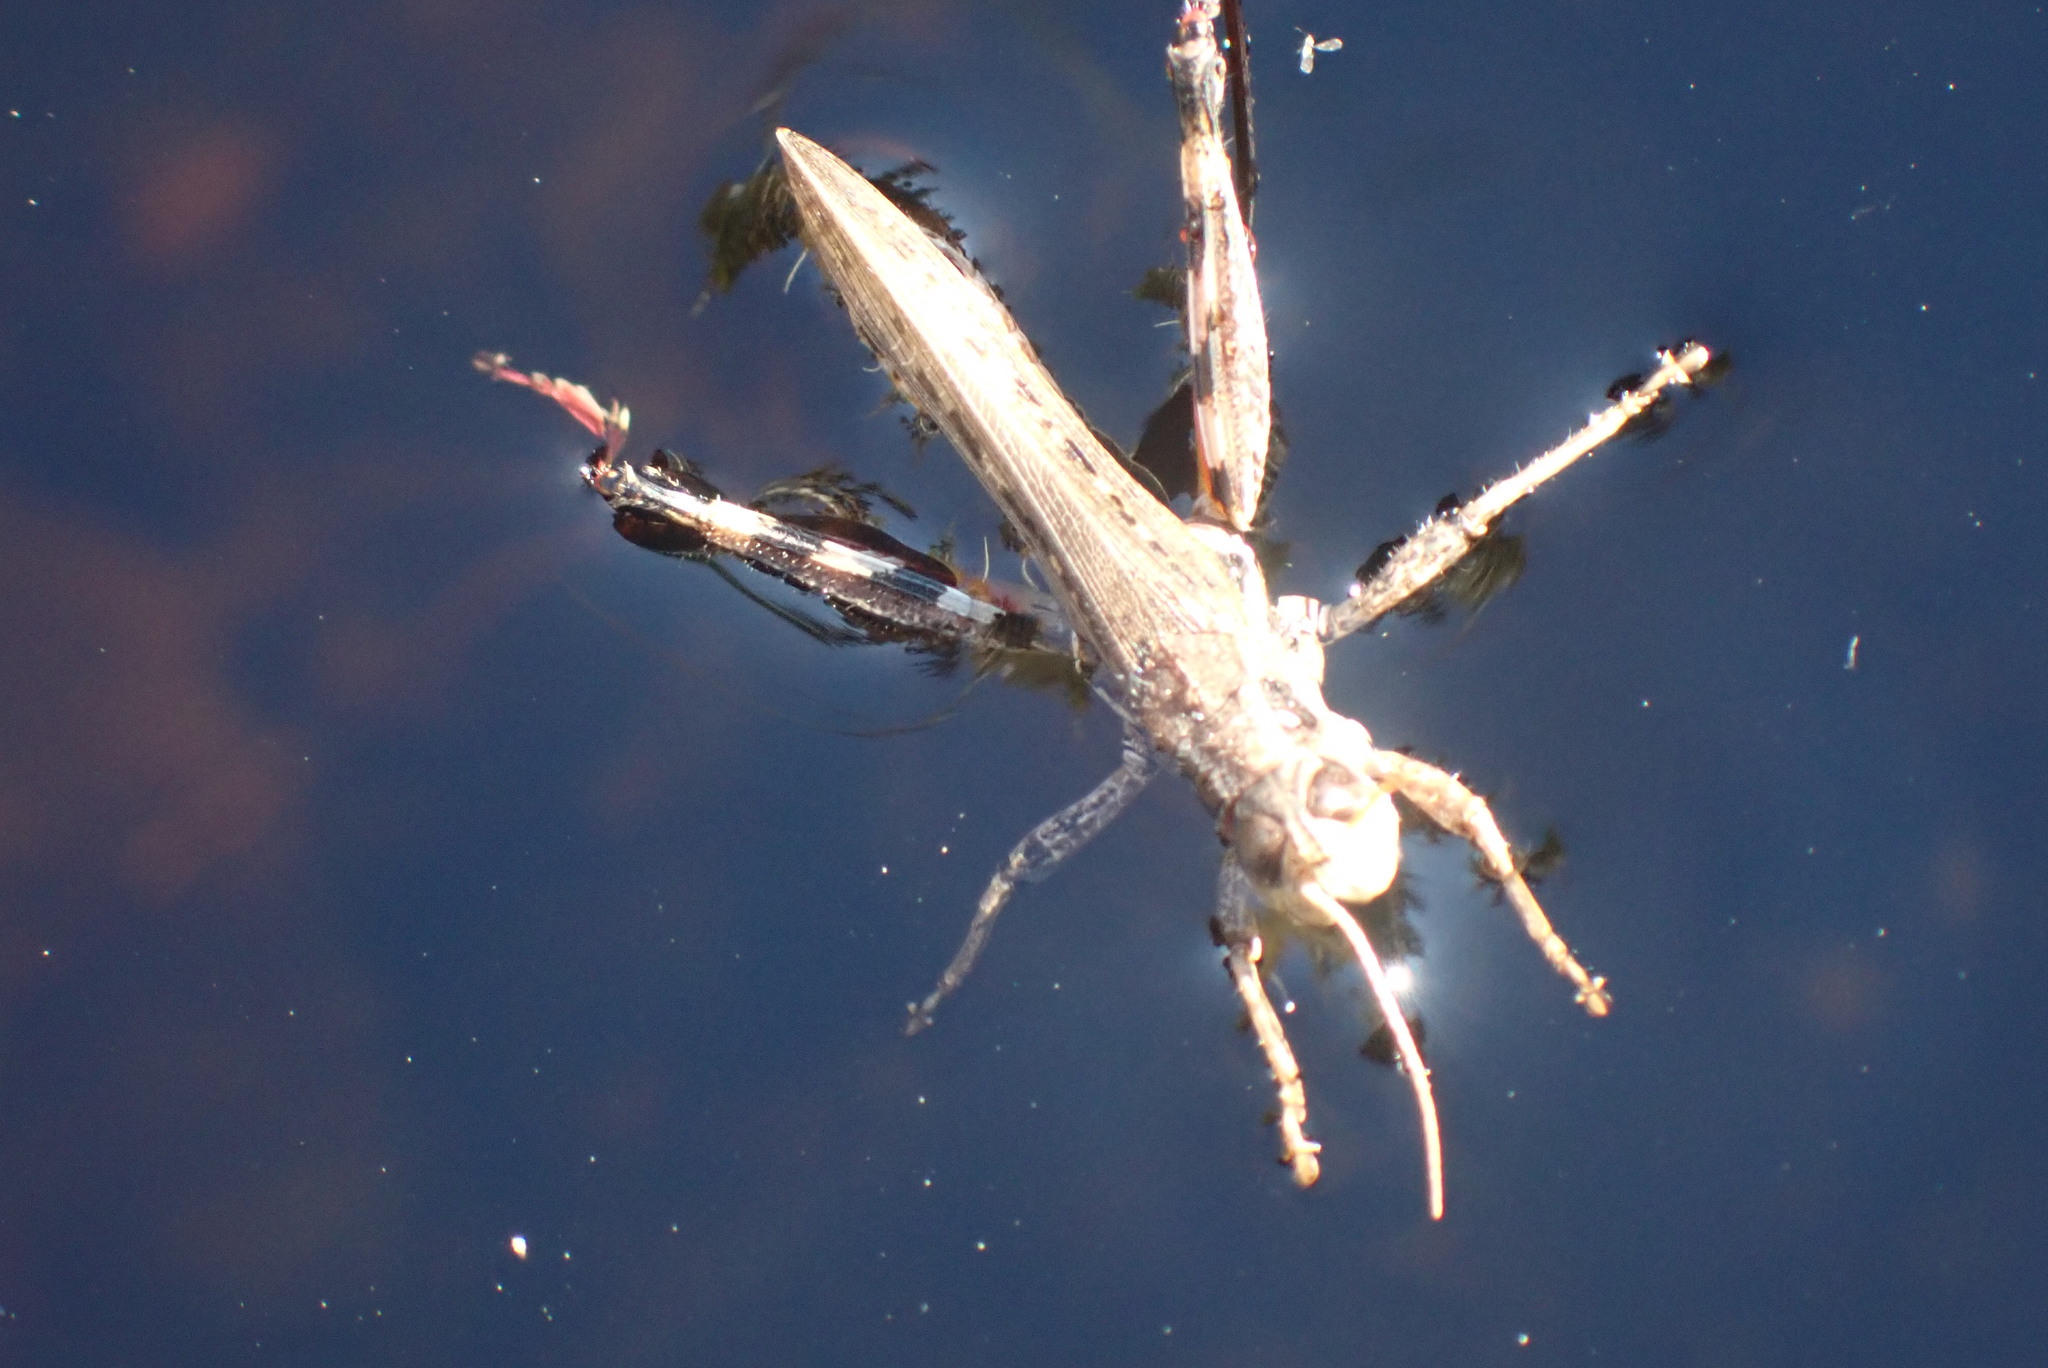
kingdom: Animalia
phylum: Arthropoda
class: Insecta
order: Orthoptera
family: Acrididae
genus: Melanoplus
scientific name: Melanoplus sanguinipes
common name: Migratory grasshopper
